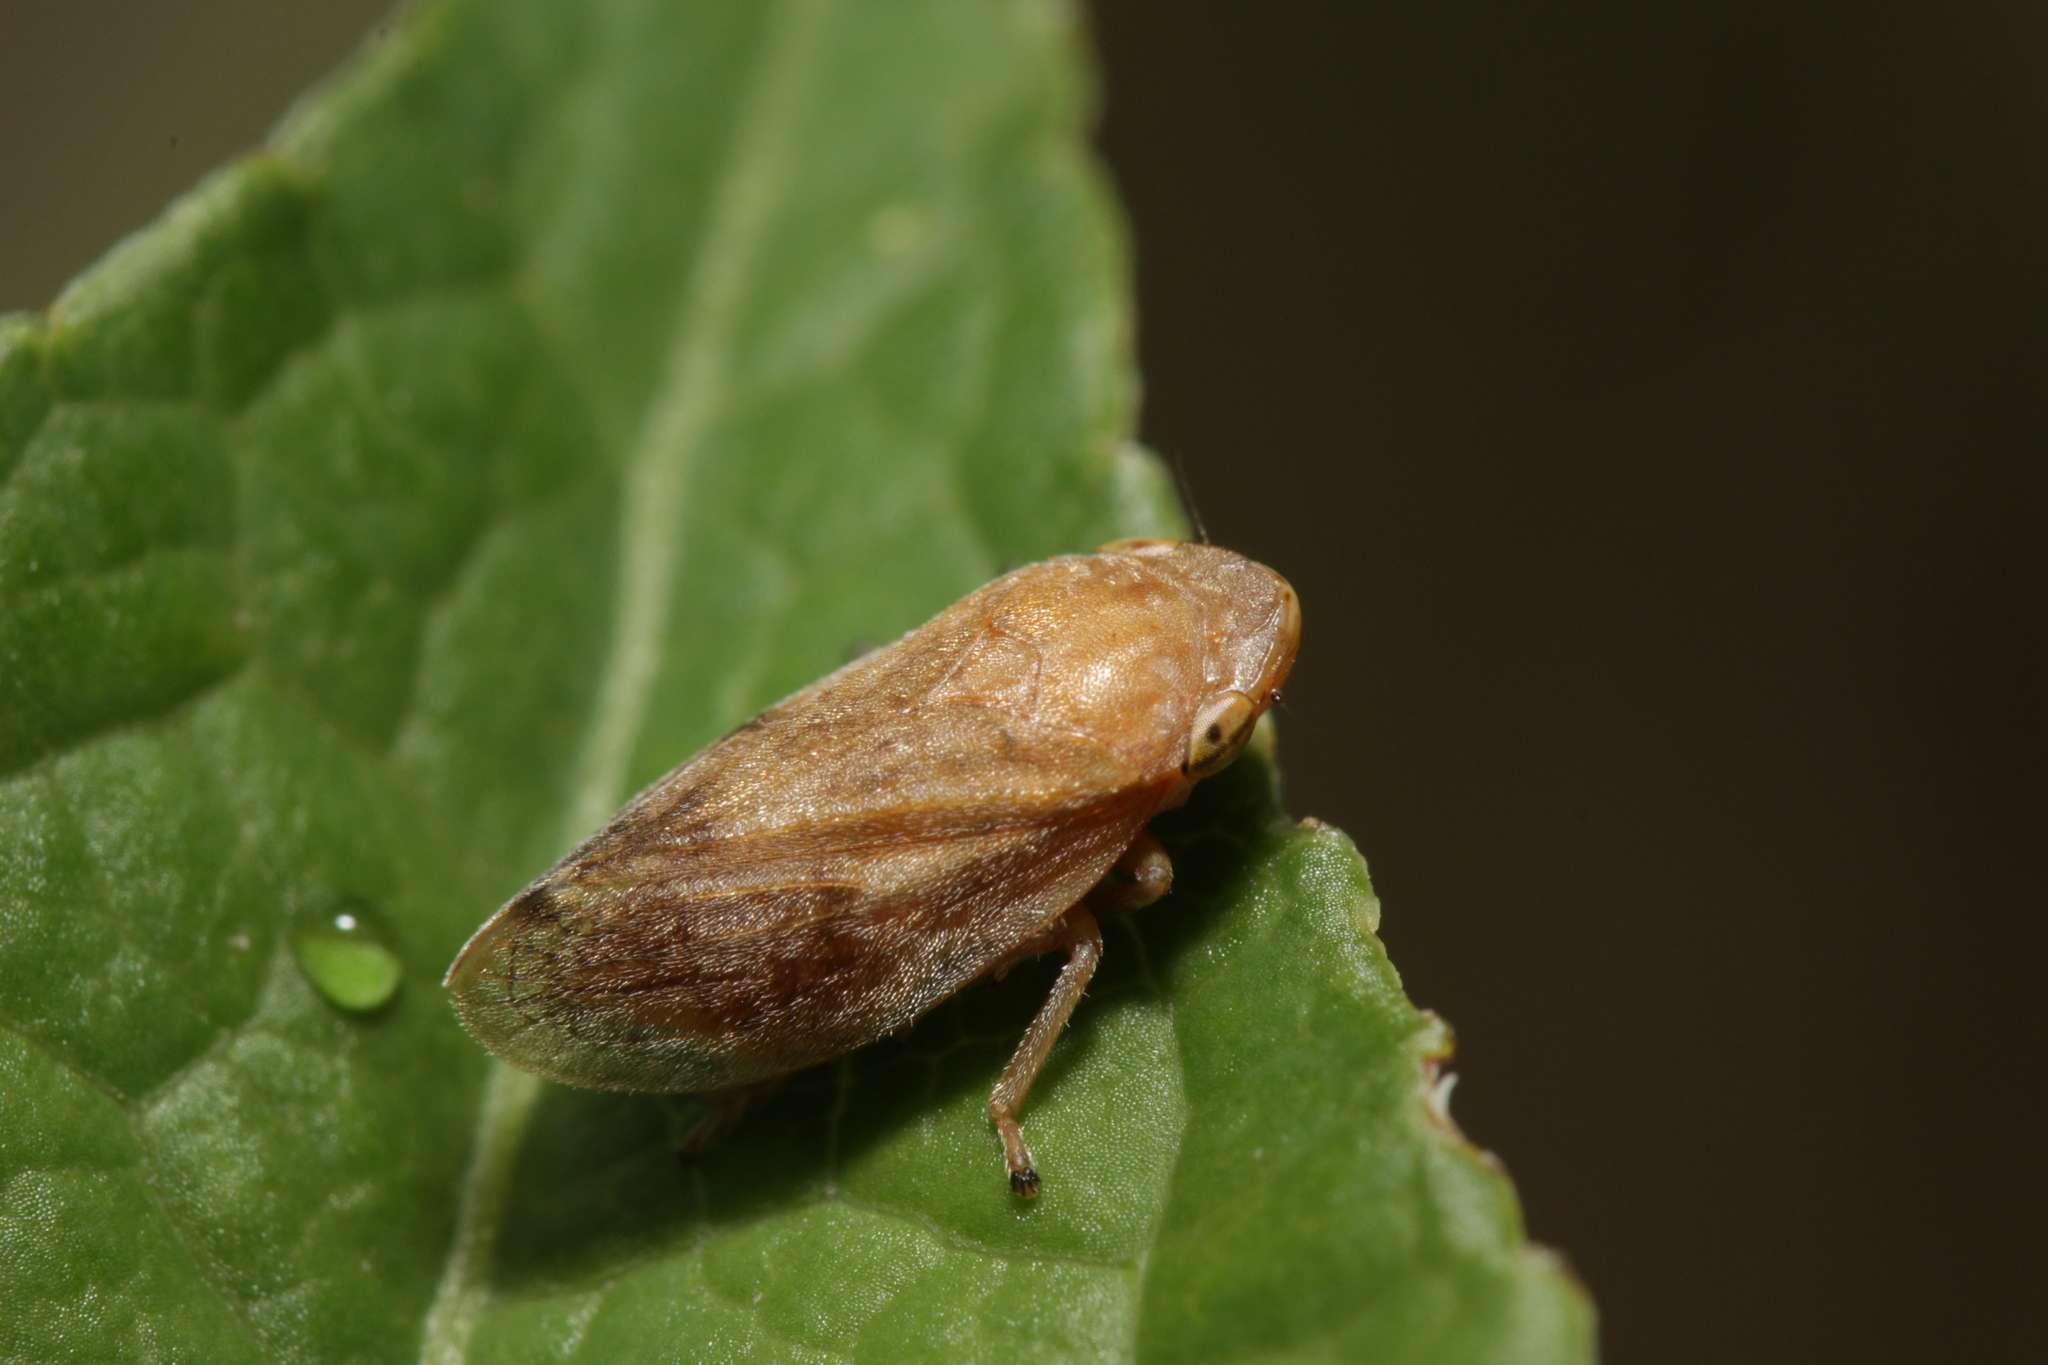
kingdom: Animalia
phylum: Arthropoda
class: Insecta
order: Hemiptera
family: Aphrophoridae
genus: Philaenus
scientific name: Philaenus spumarius
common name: Meadow spittlebug
